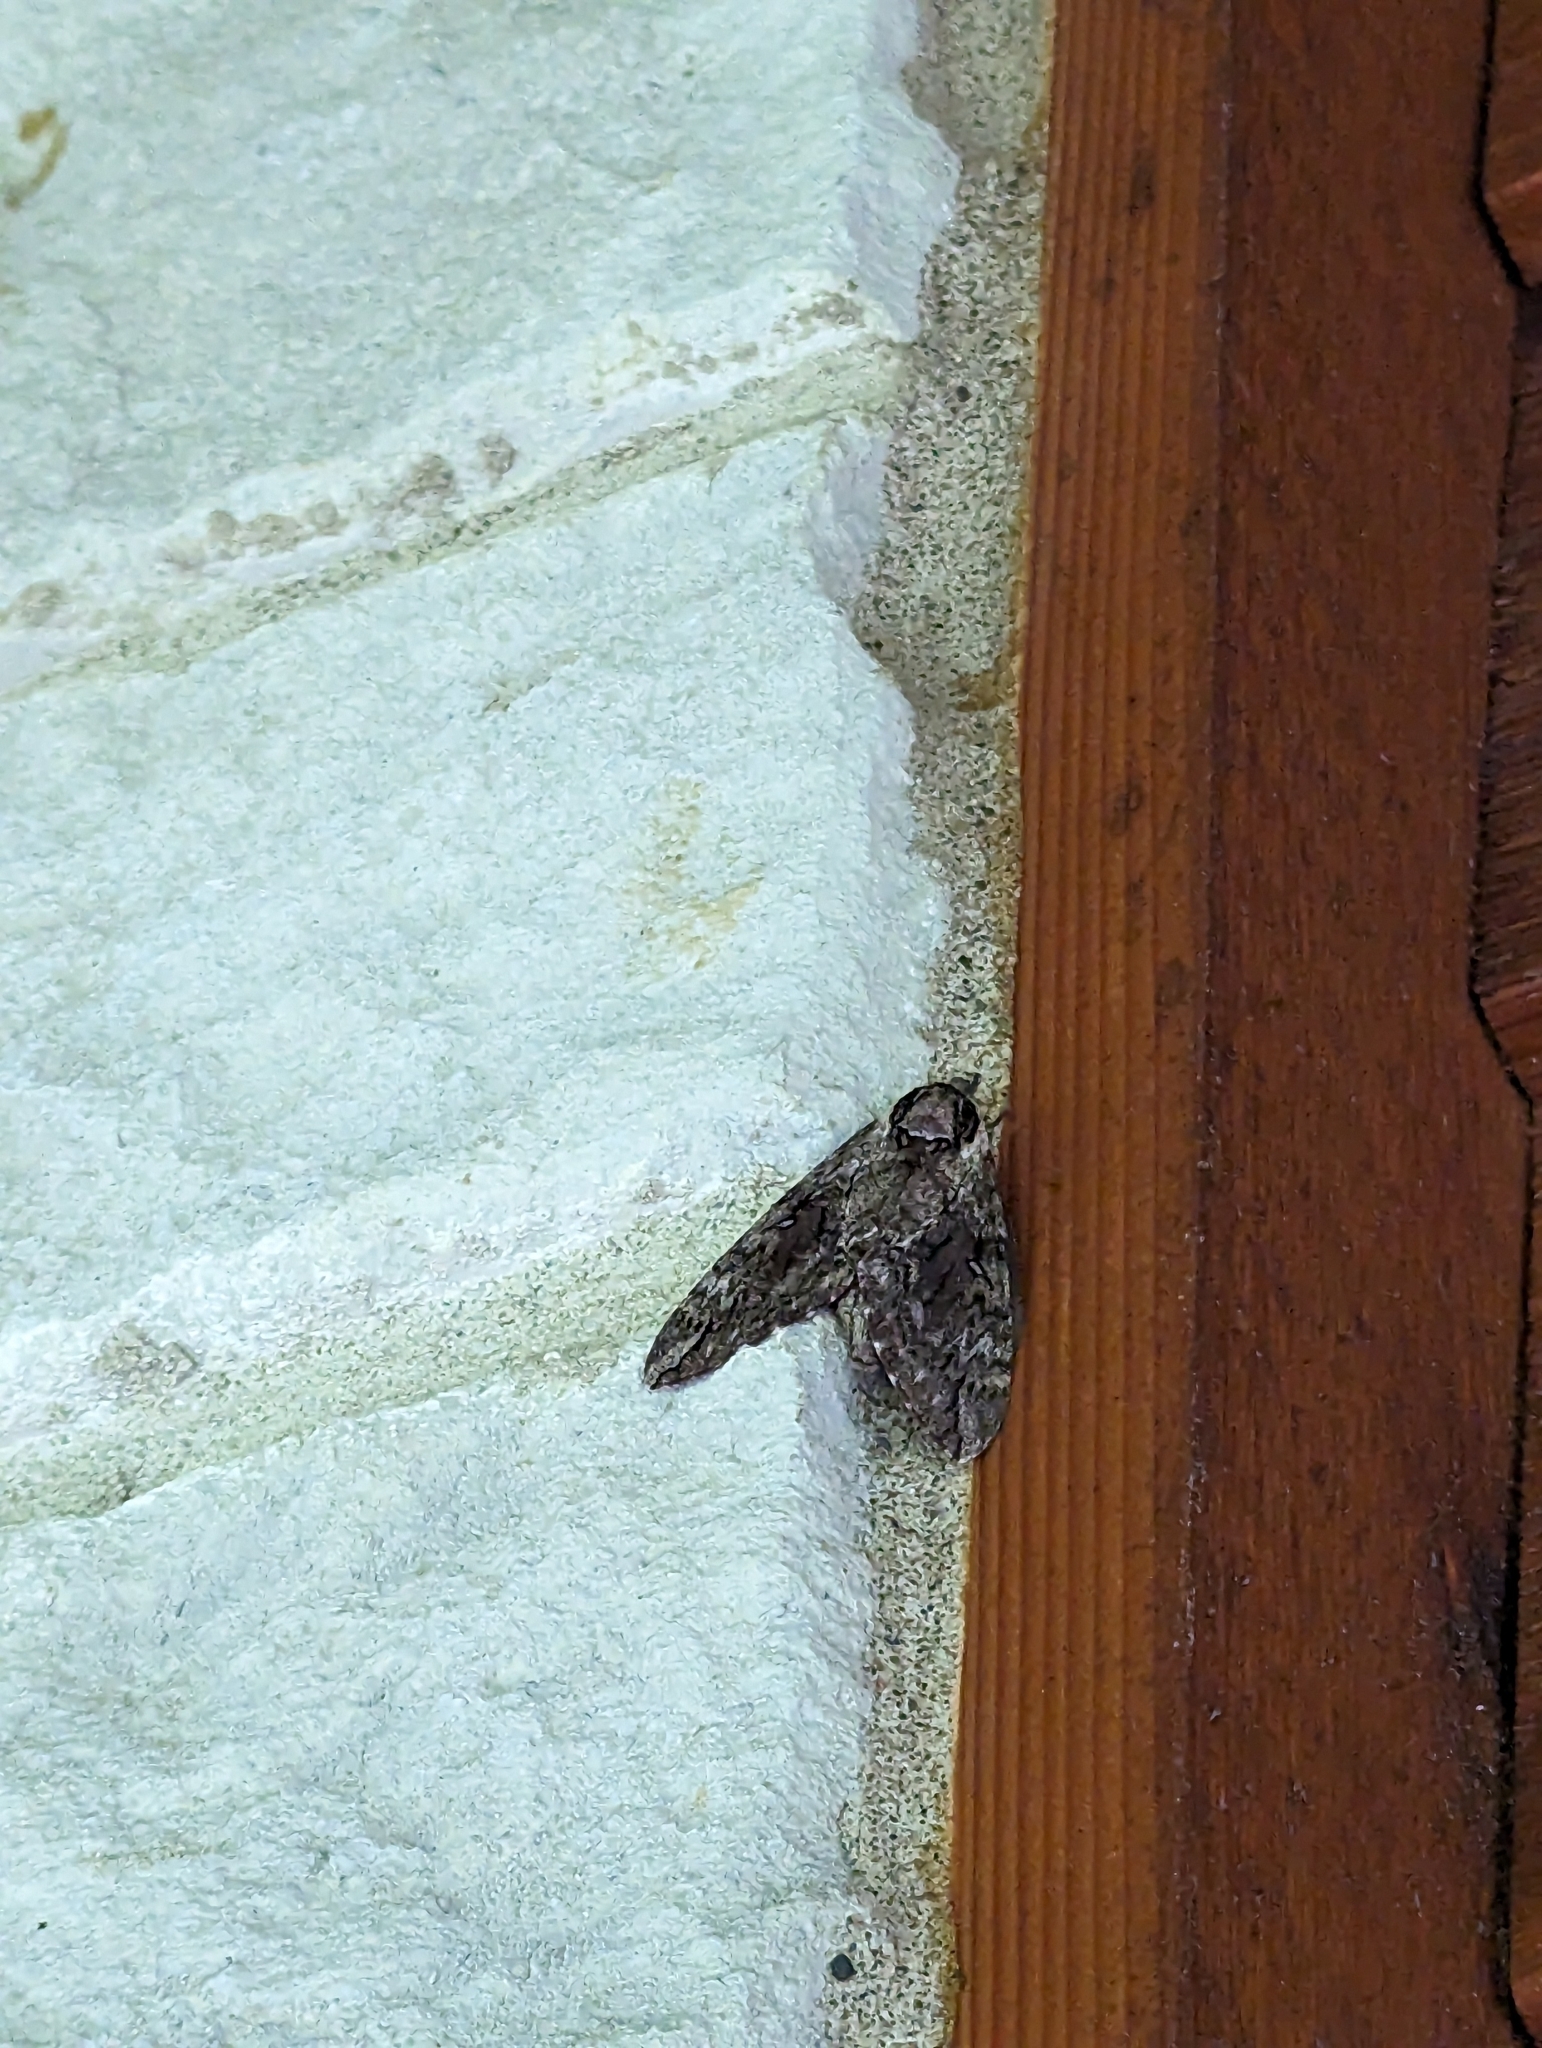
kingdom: Animalia
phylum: Arthropoda
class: Insecta
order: Lepidoptera
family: Sphingidae
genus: Ceratomia
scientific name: Ceratomia undulosa
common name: Waved sphinx
